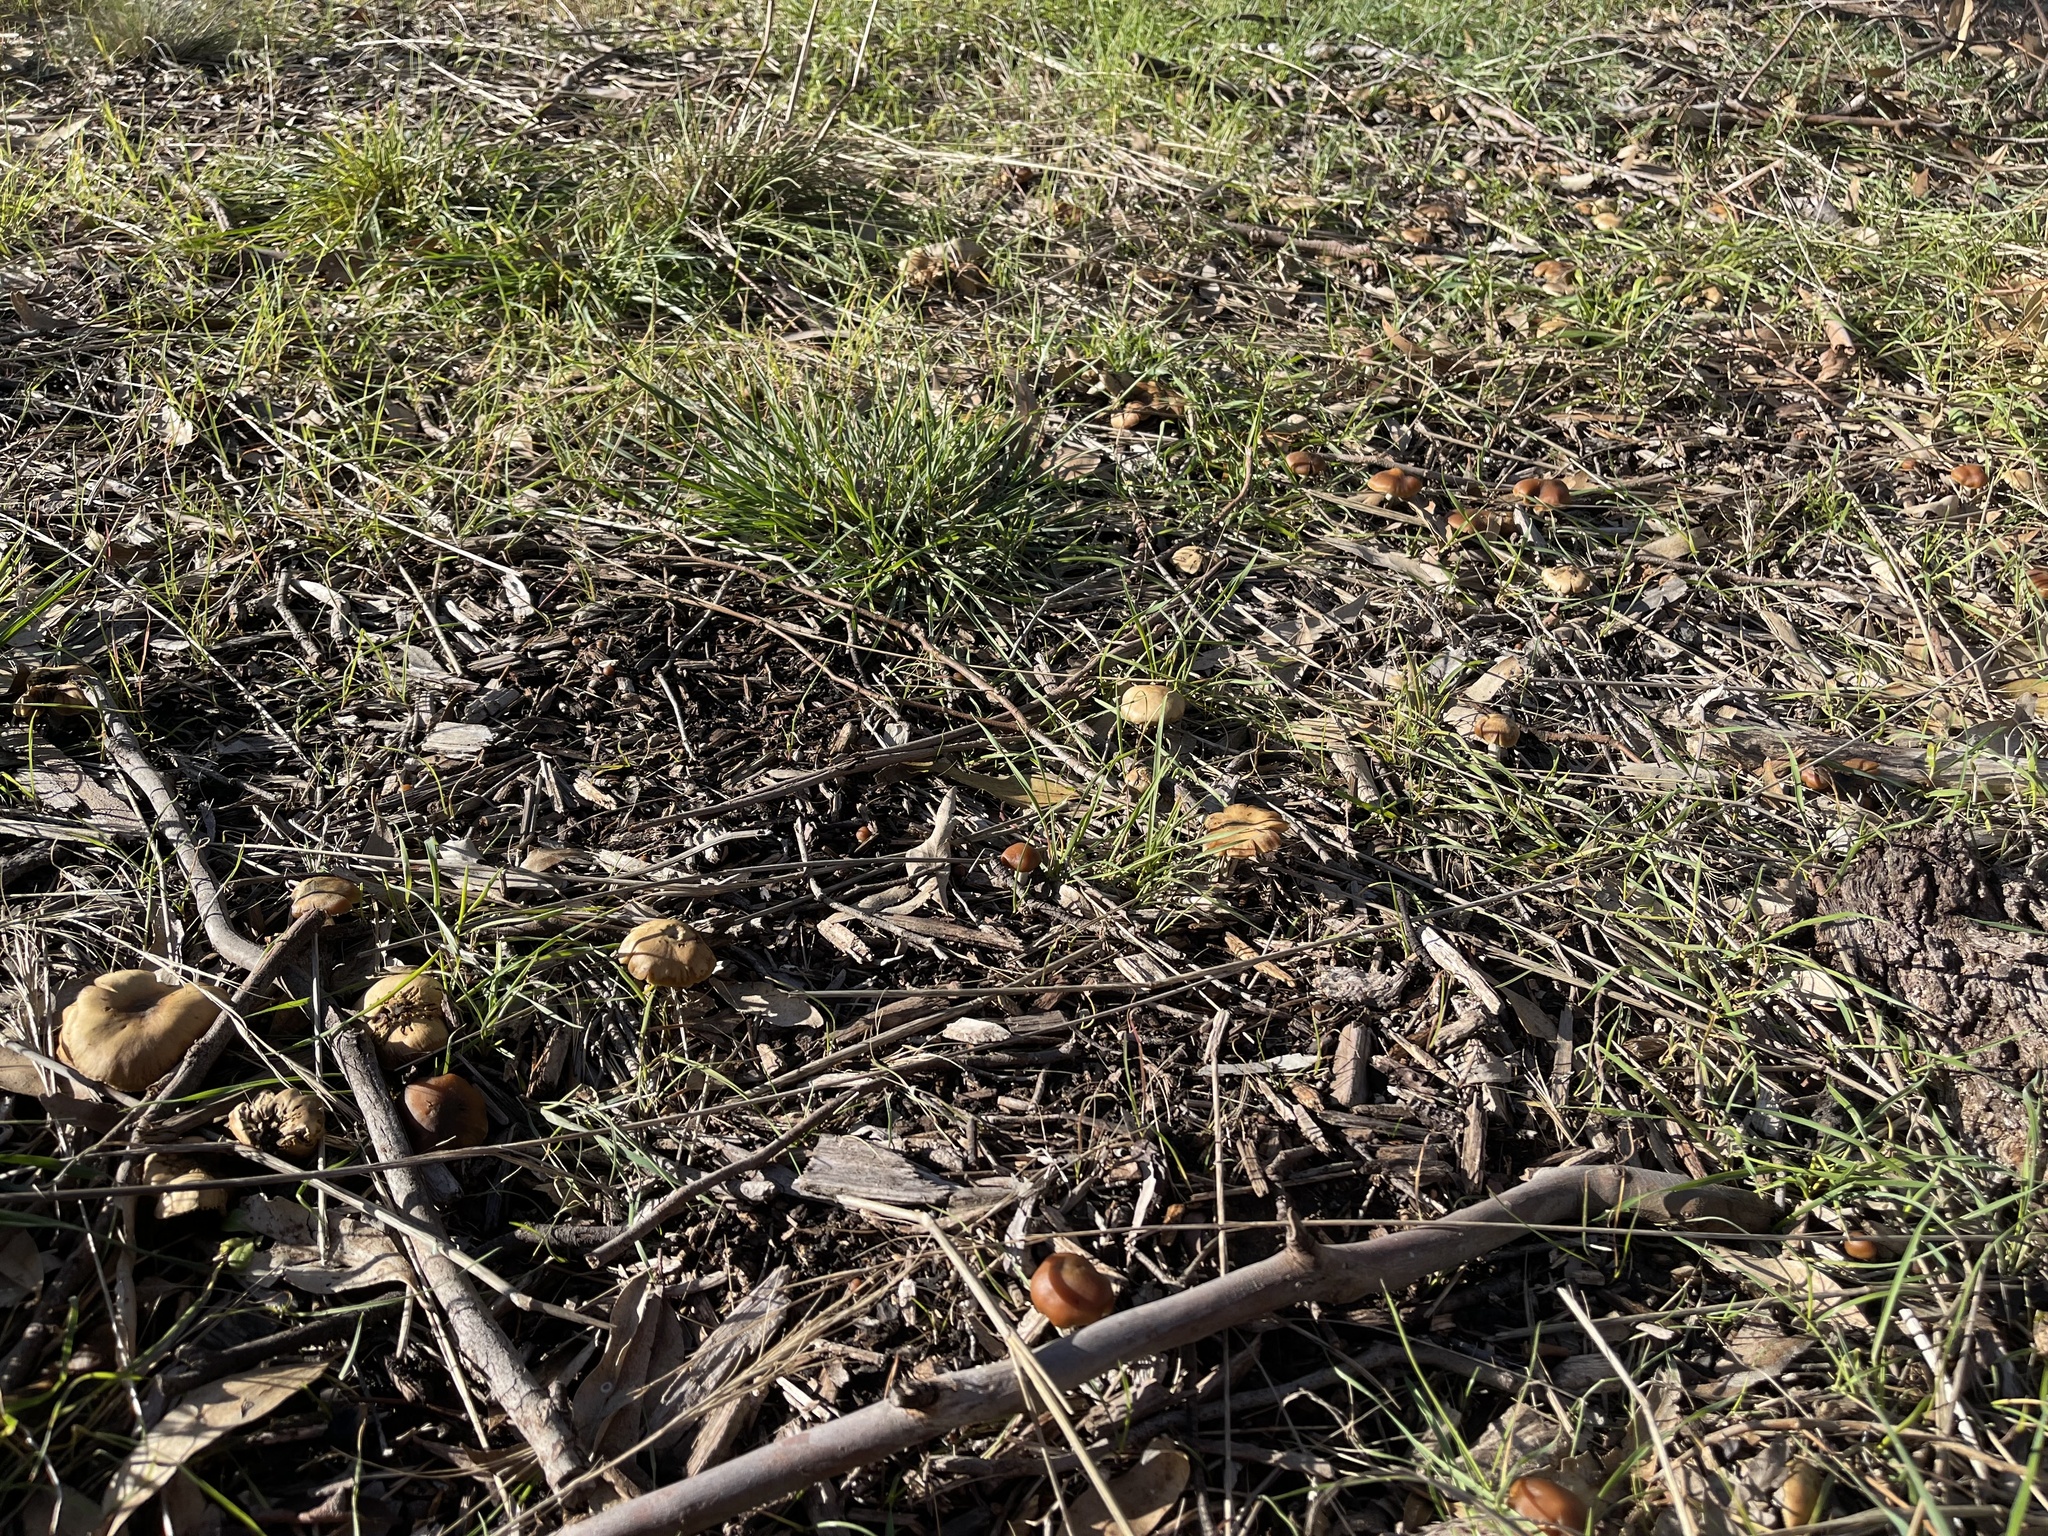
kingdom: Fungi
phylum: Basidiomycota
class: Agaricomycetes
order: Agaricales
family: Hymenogastraceae
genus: Psilocybe
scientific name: Psilocybe subaeruginosa
